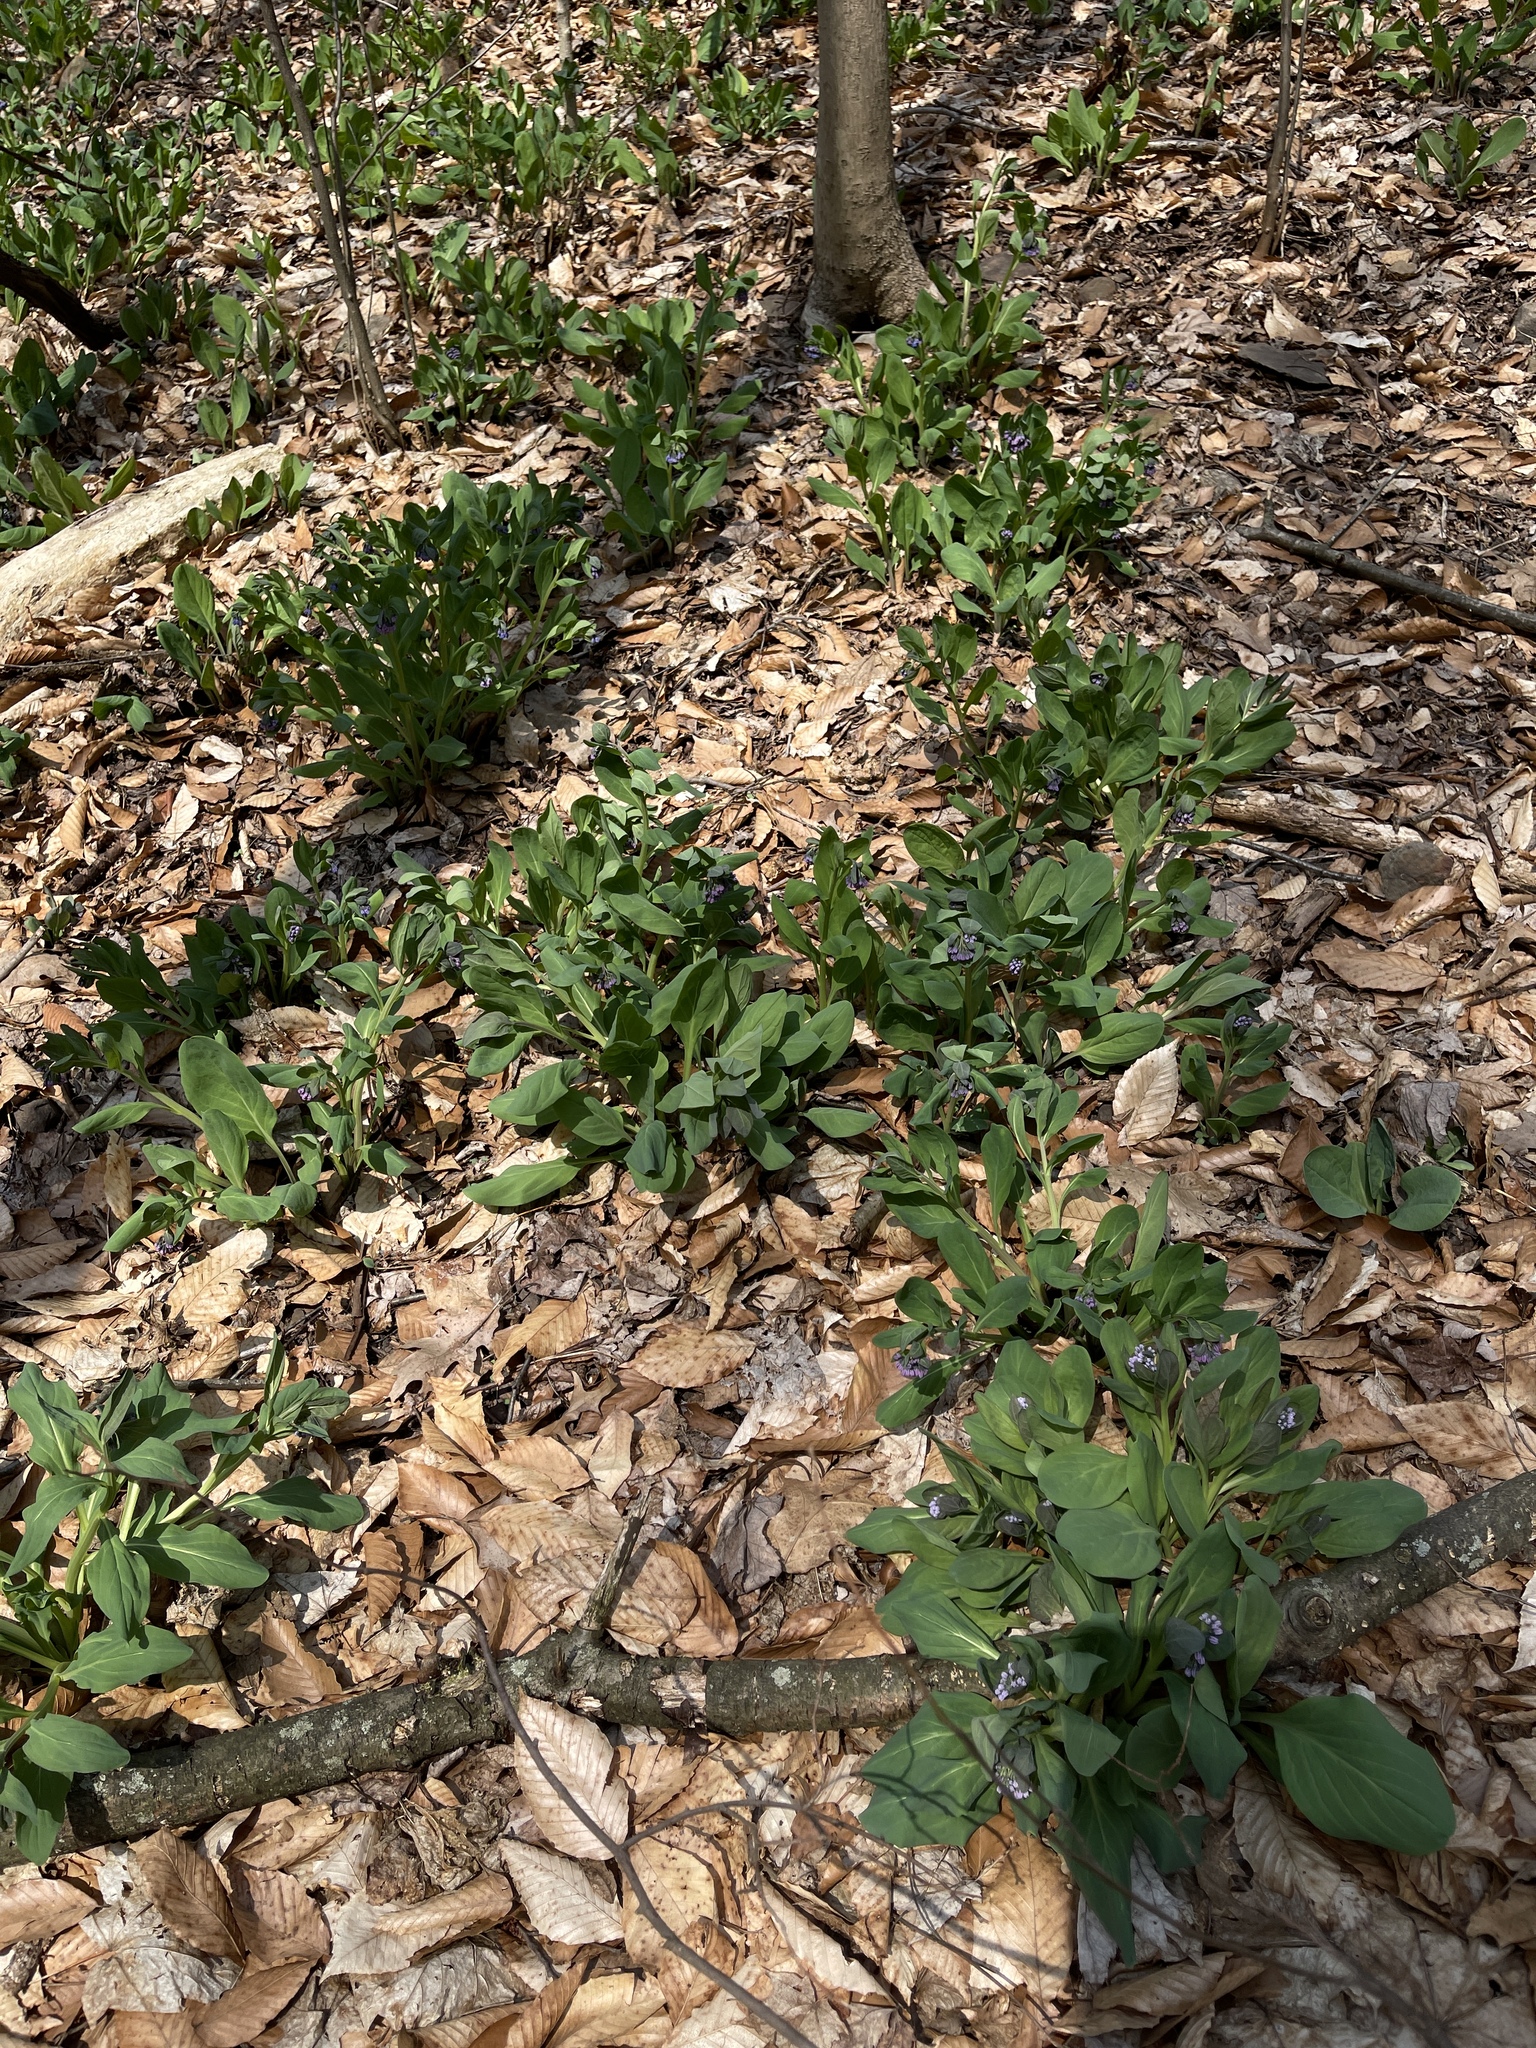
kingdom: Plantae
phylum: Tracheophyta
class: Magnoliopsida
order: Boraginales
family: Boraginaceae
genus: Mertensia
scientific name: Mertensia virginica
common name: Virginia bluebells
